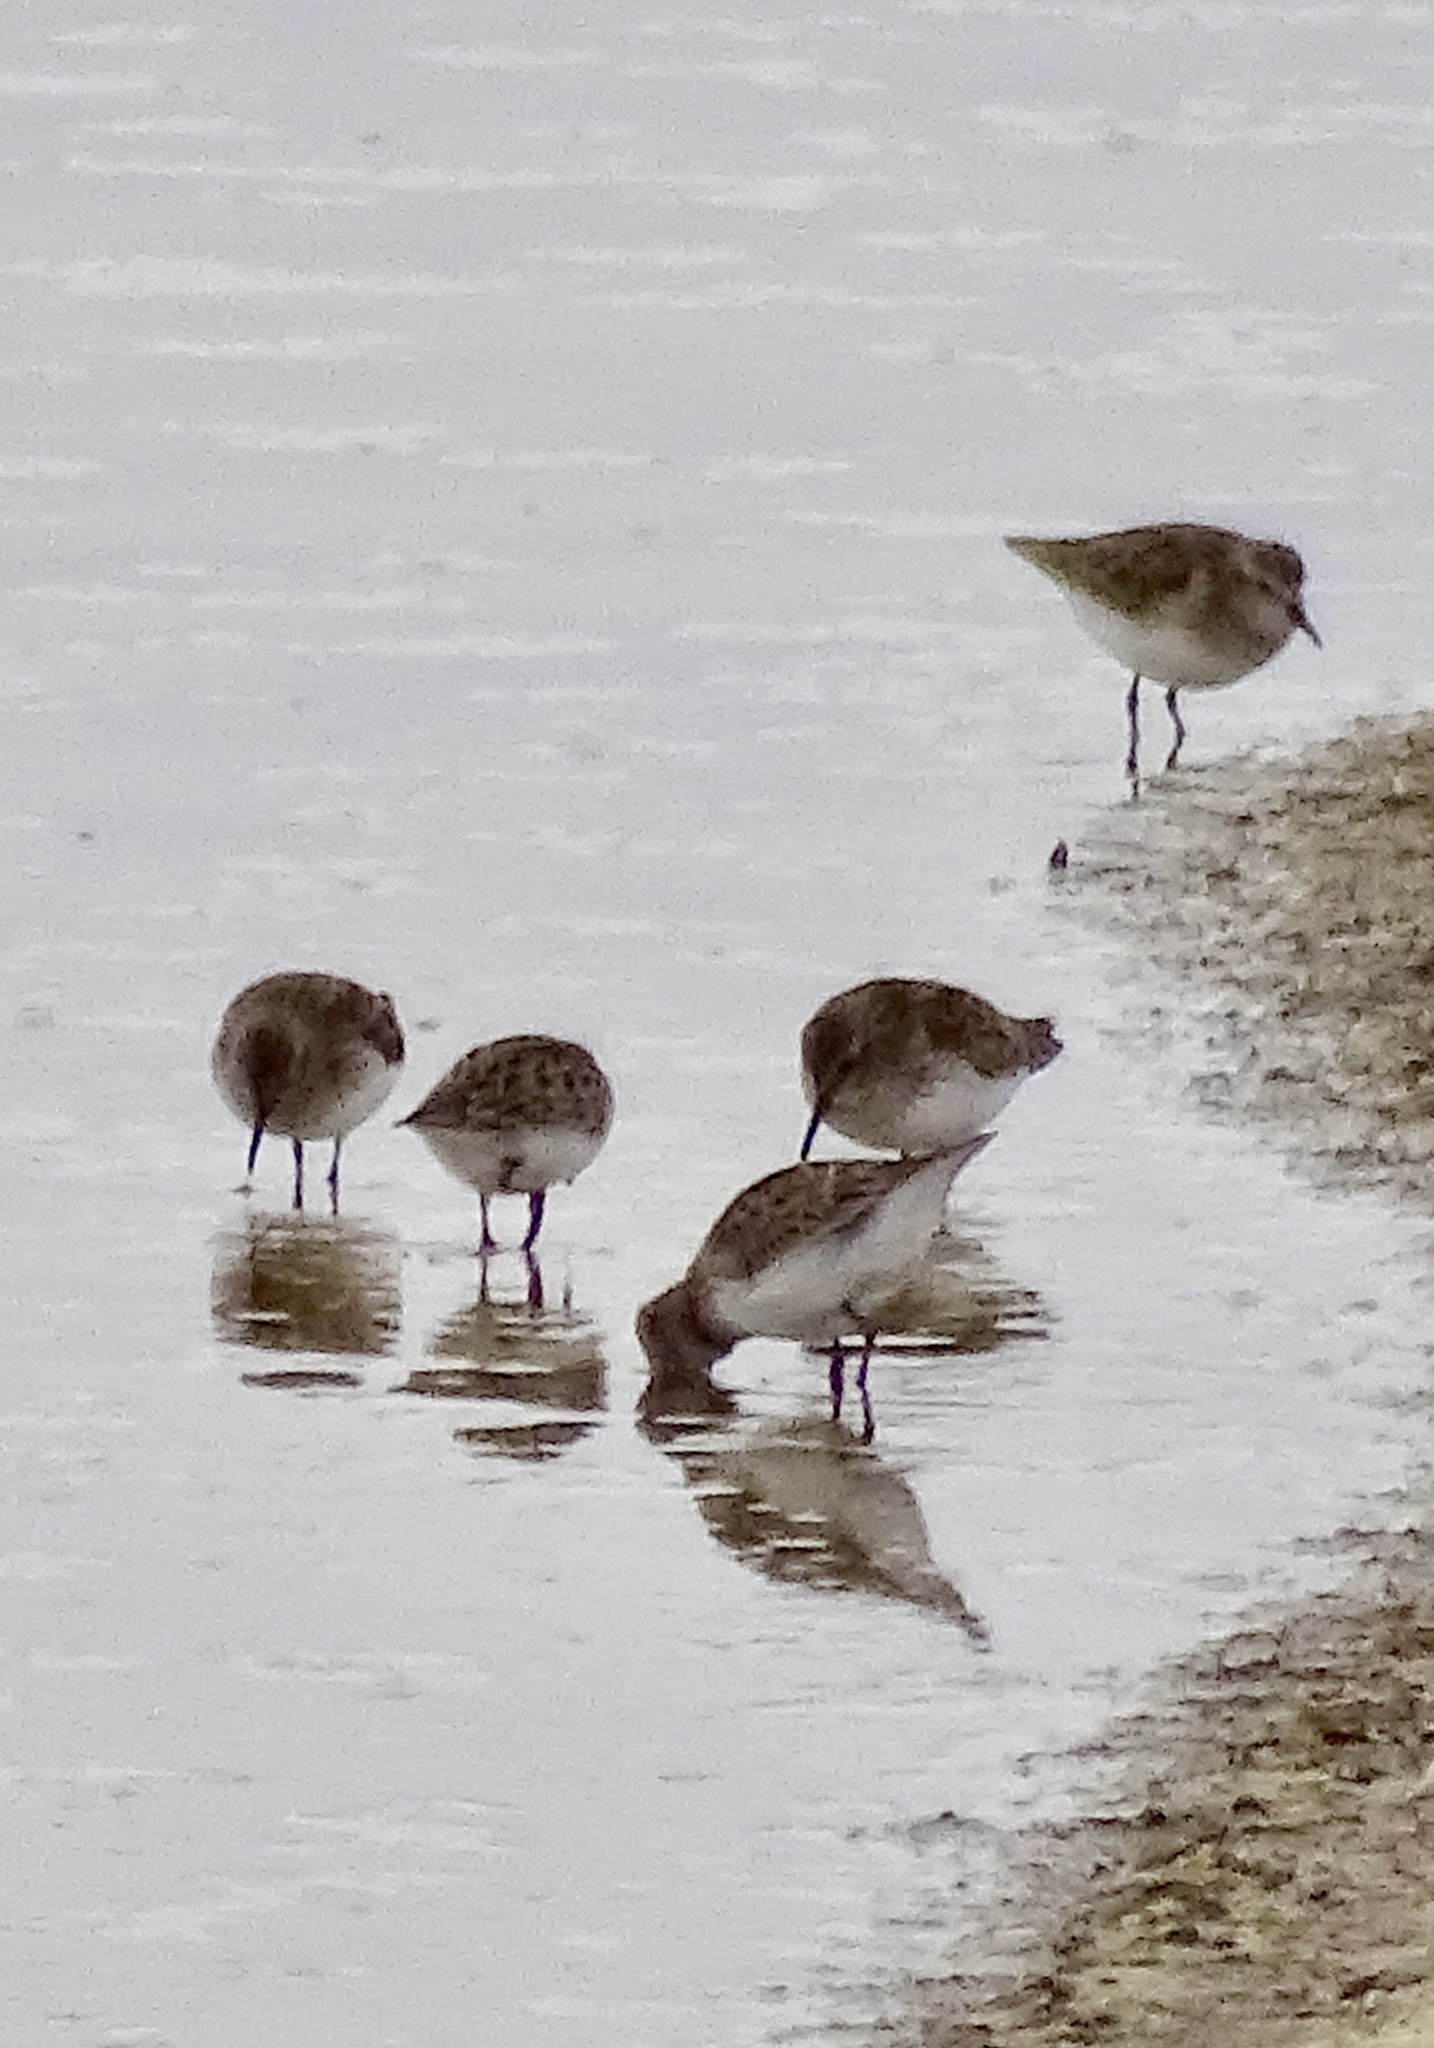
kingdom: Animalia
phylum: Chordata
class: Aves
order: Charadriiformes
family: Scolopacidae
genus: Calidris
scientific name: Calidris minutilla
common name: Least sandpiper
